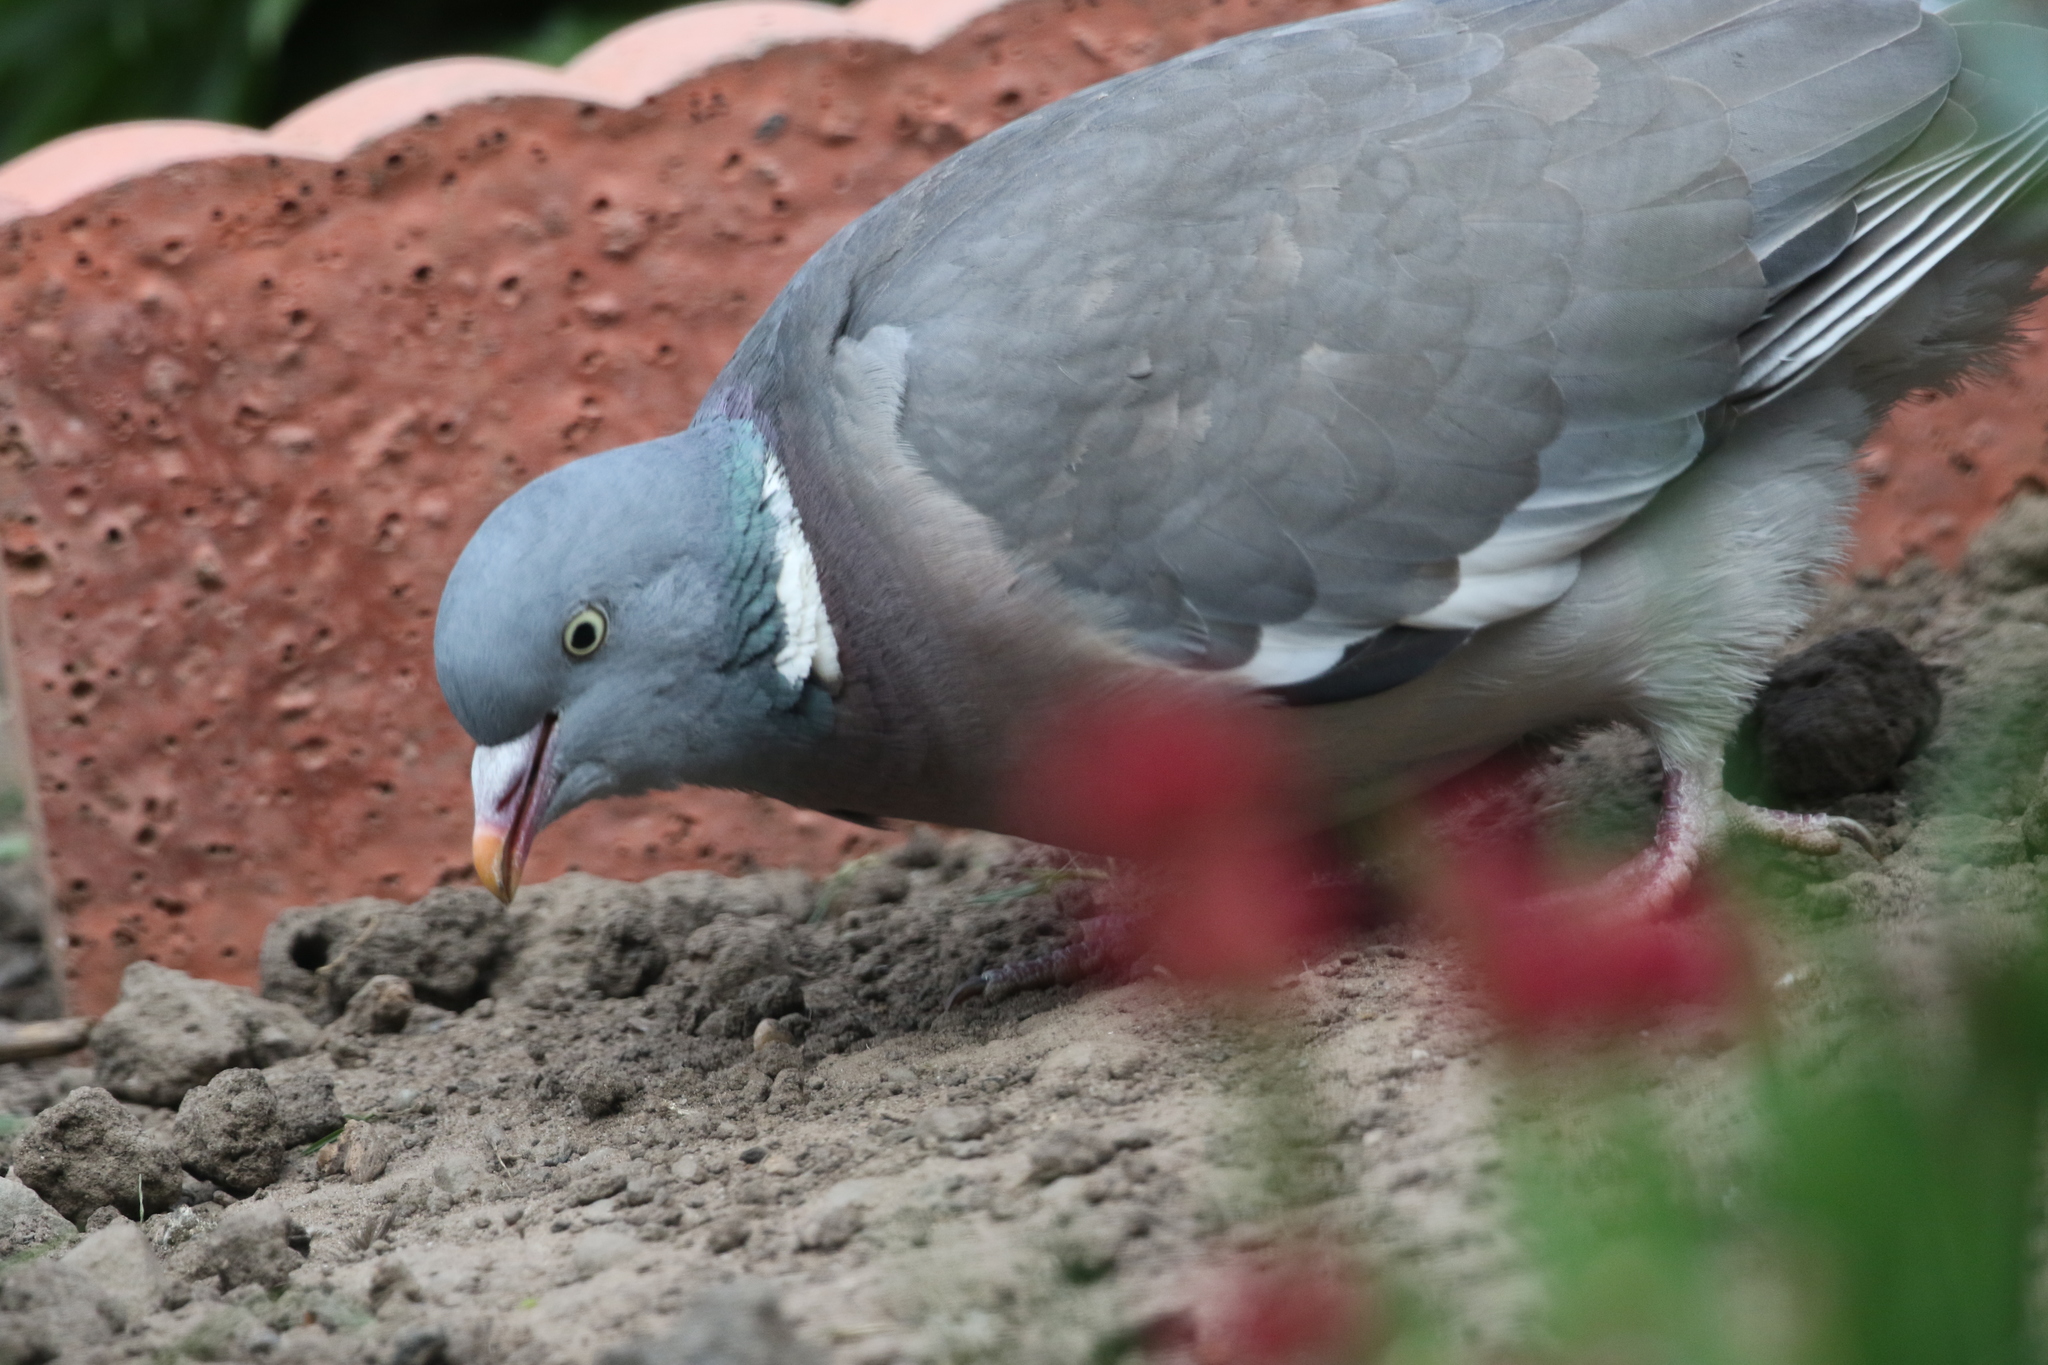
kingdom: Animalia
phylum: Chordata
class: Aves
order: Columbiformes
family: Columbidae
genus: Columba
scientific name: Columba palumbus
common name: Common wood pigeon
